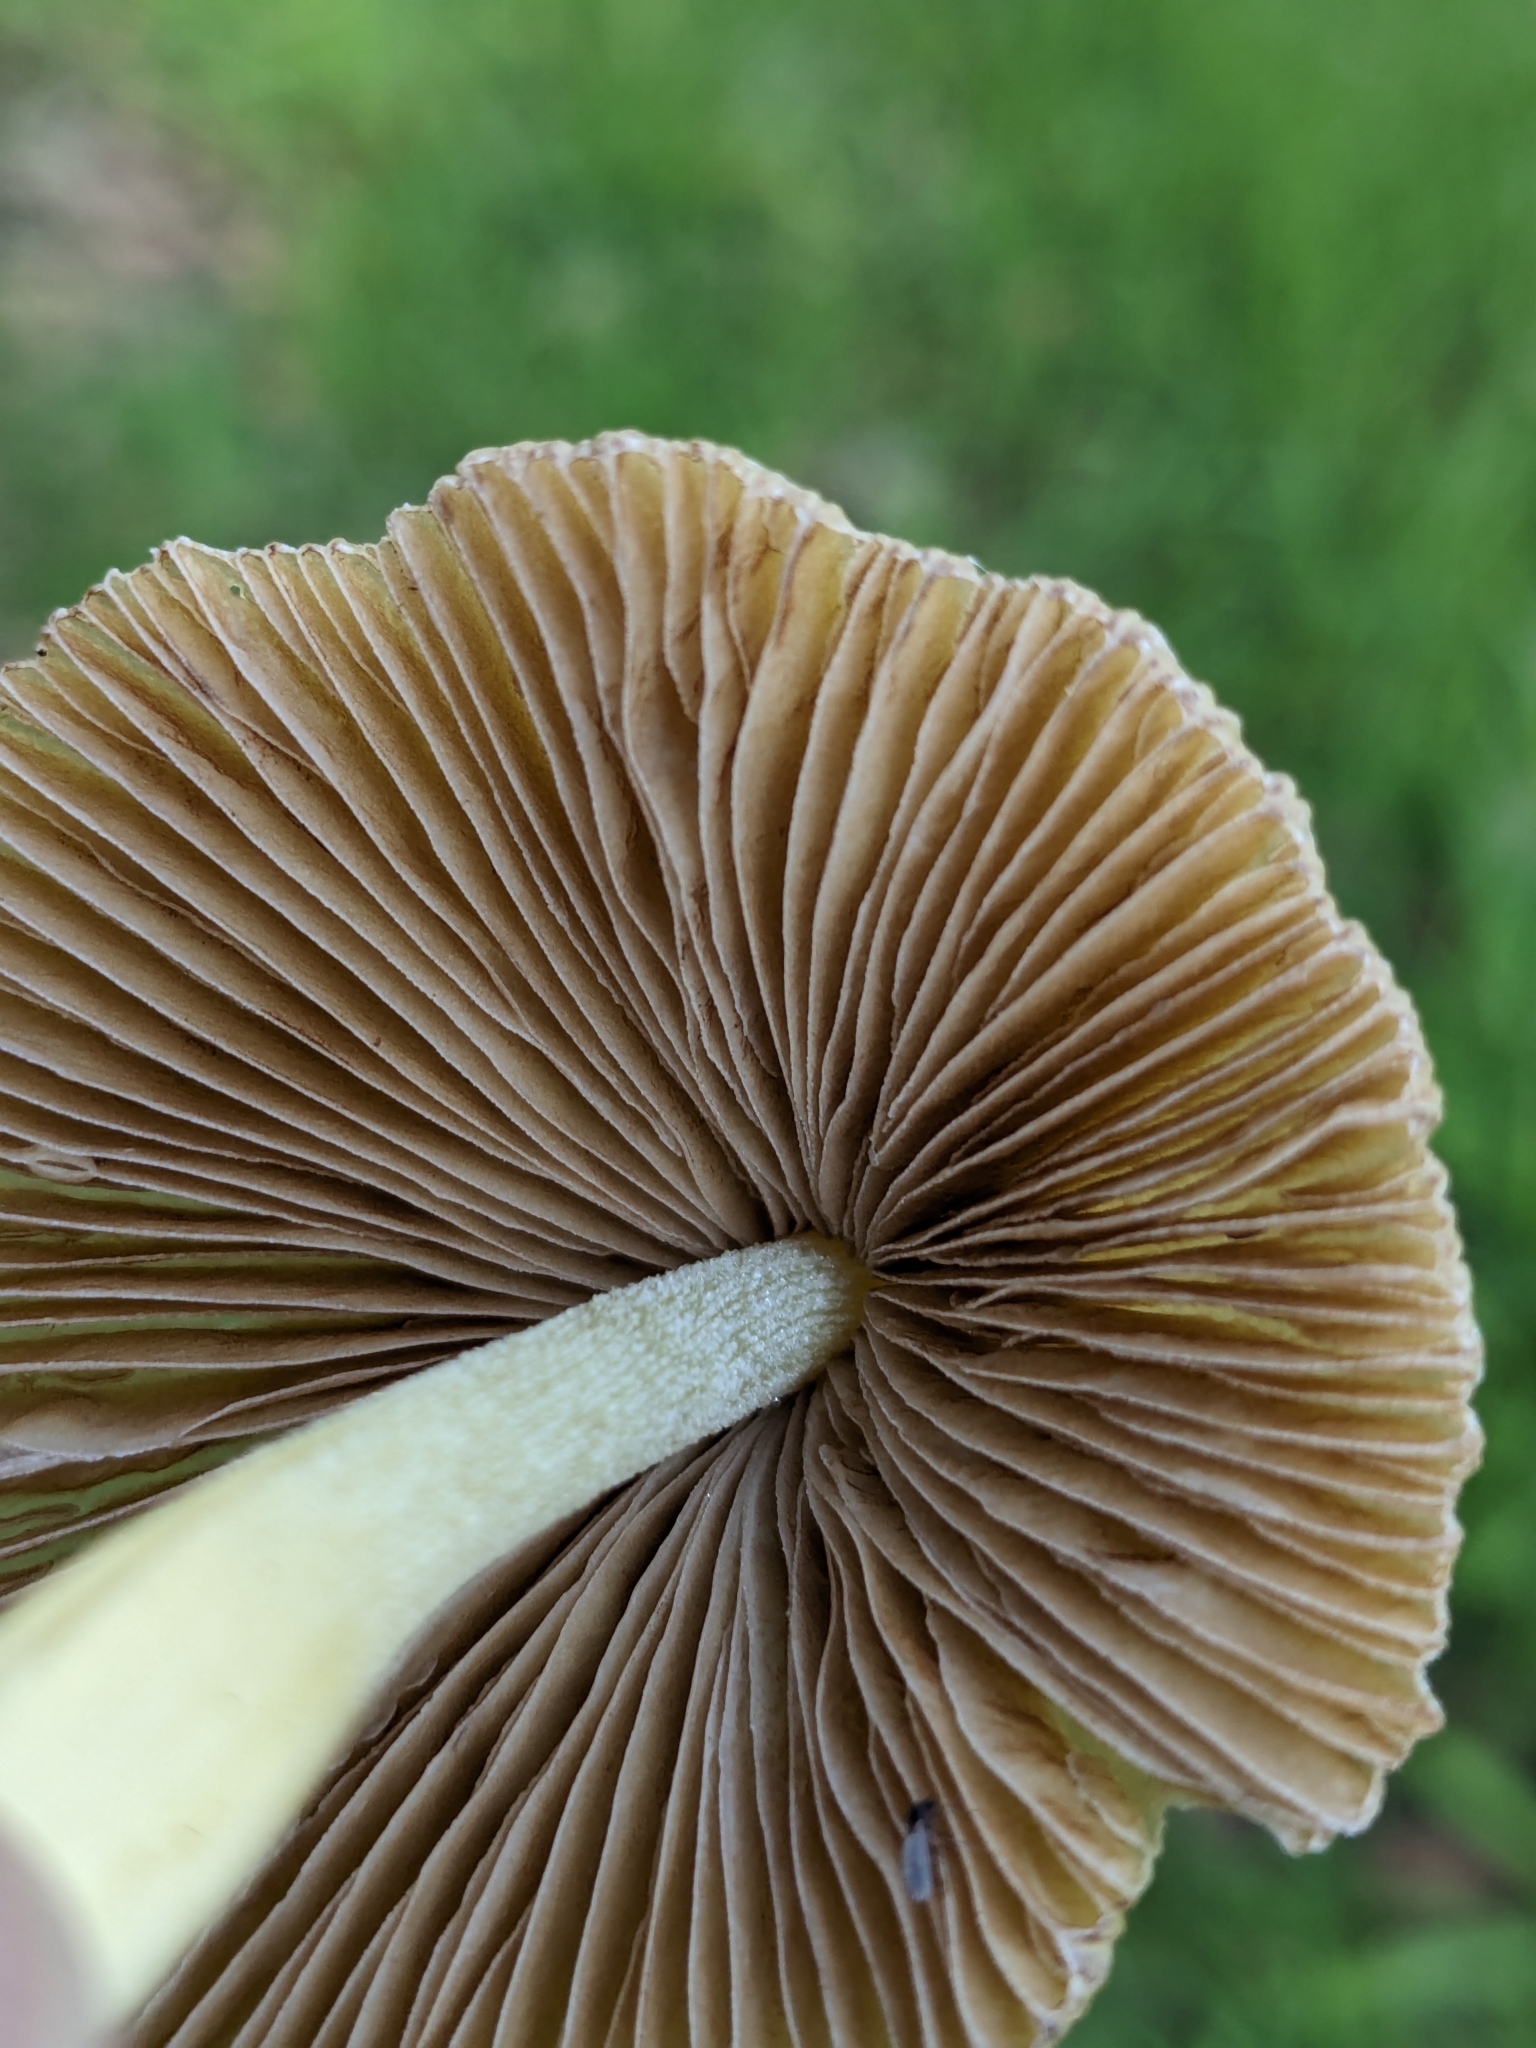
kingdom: Fungi
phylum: Basidiomycota
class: Agaricomycetes
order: Agaricales
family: Bolbitiaceae
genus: Bolbitius
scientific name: Bolbitius titubans
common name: Yellow fieldcap
